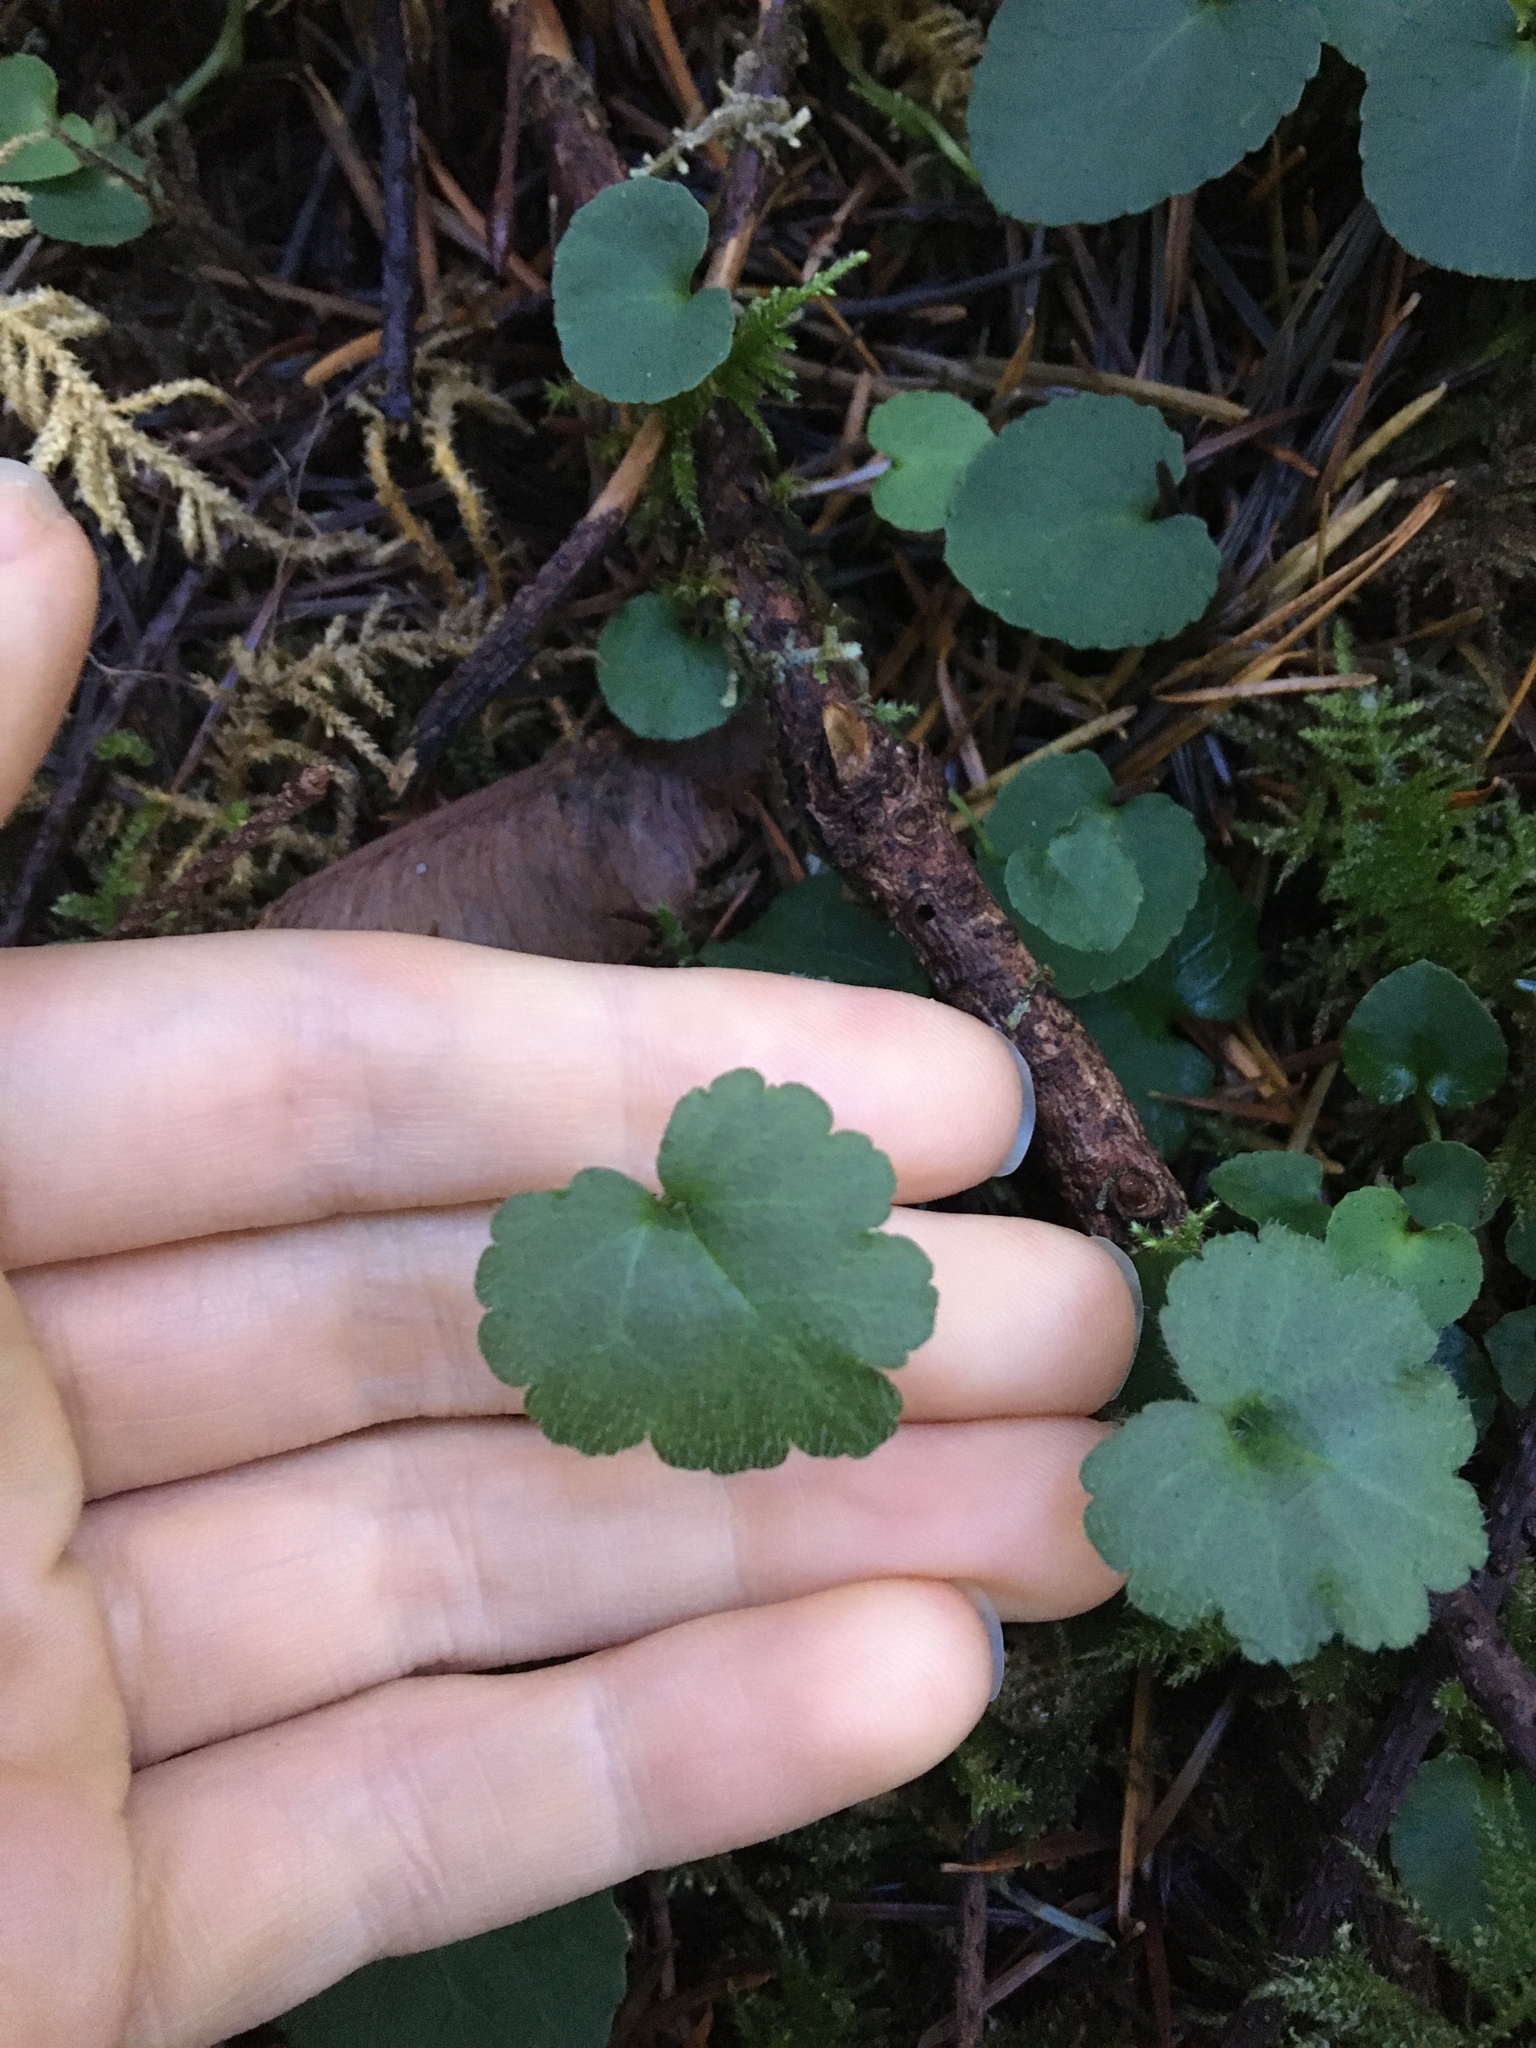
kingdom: Plantae
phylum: Tracheophyta
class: Magnoliopsida
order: Lamiales
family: Plantaginaceae
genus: Synthyris
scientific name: Synthyris reniformis
